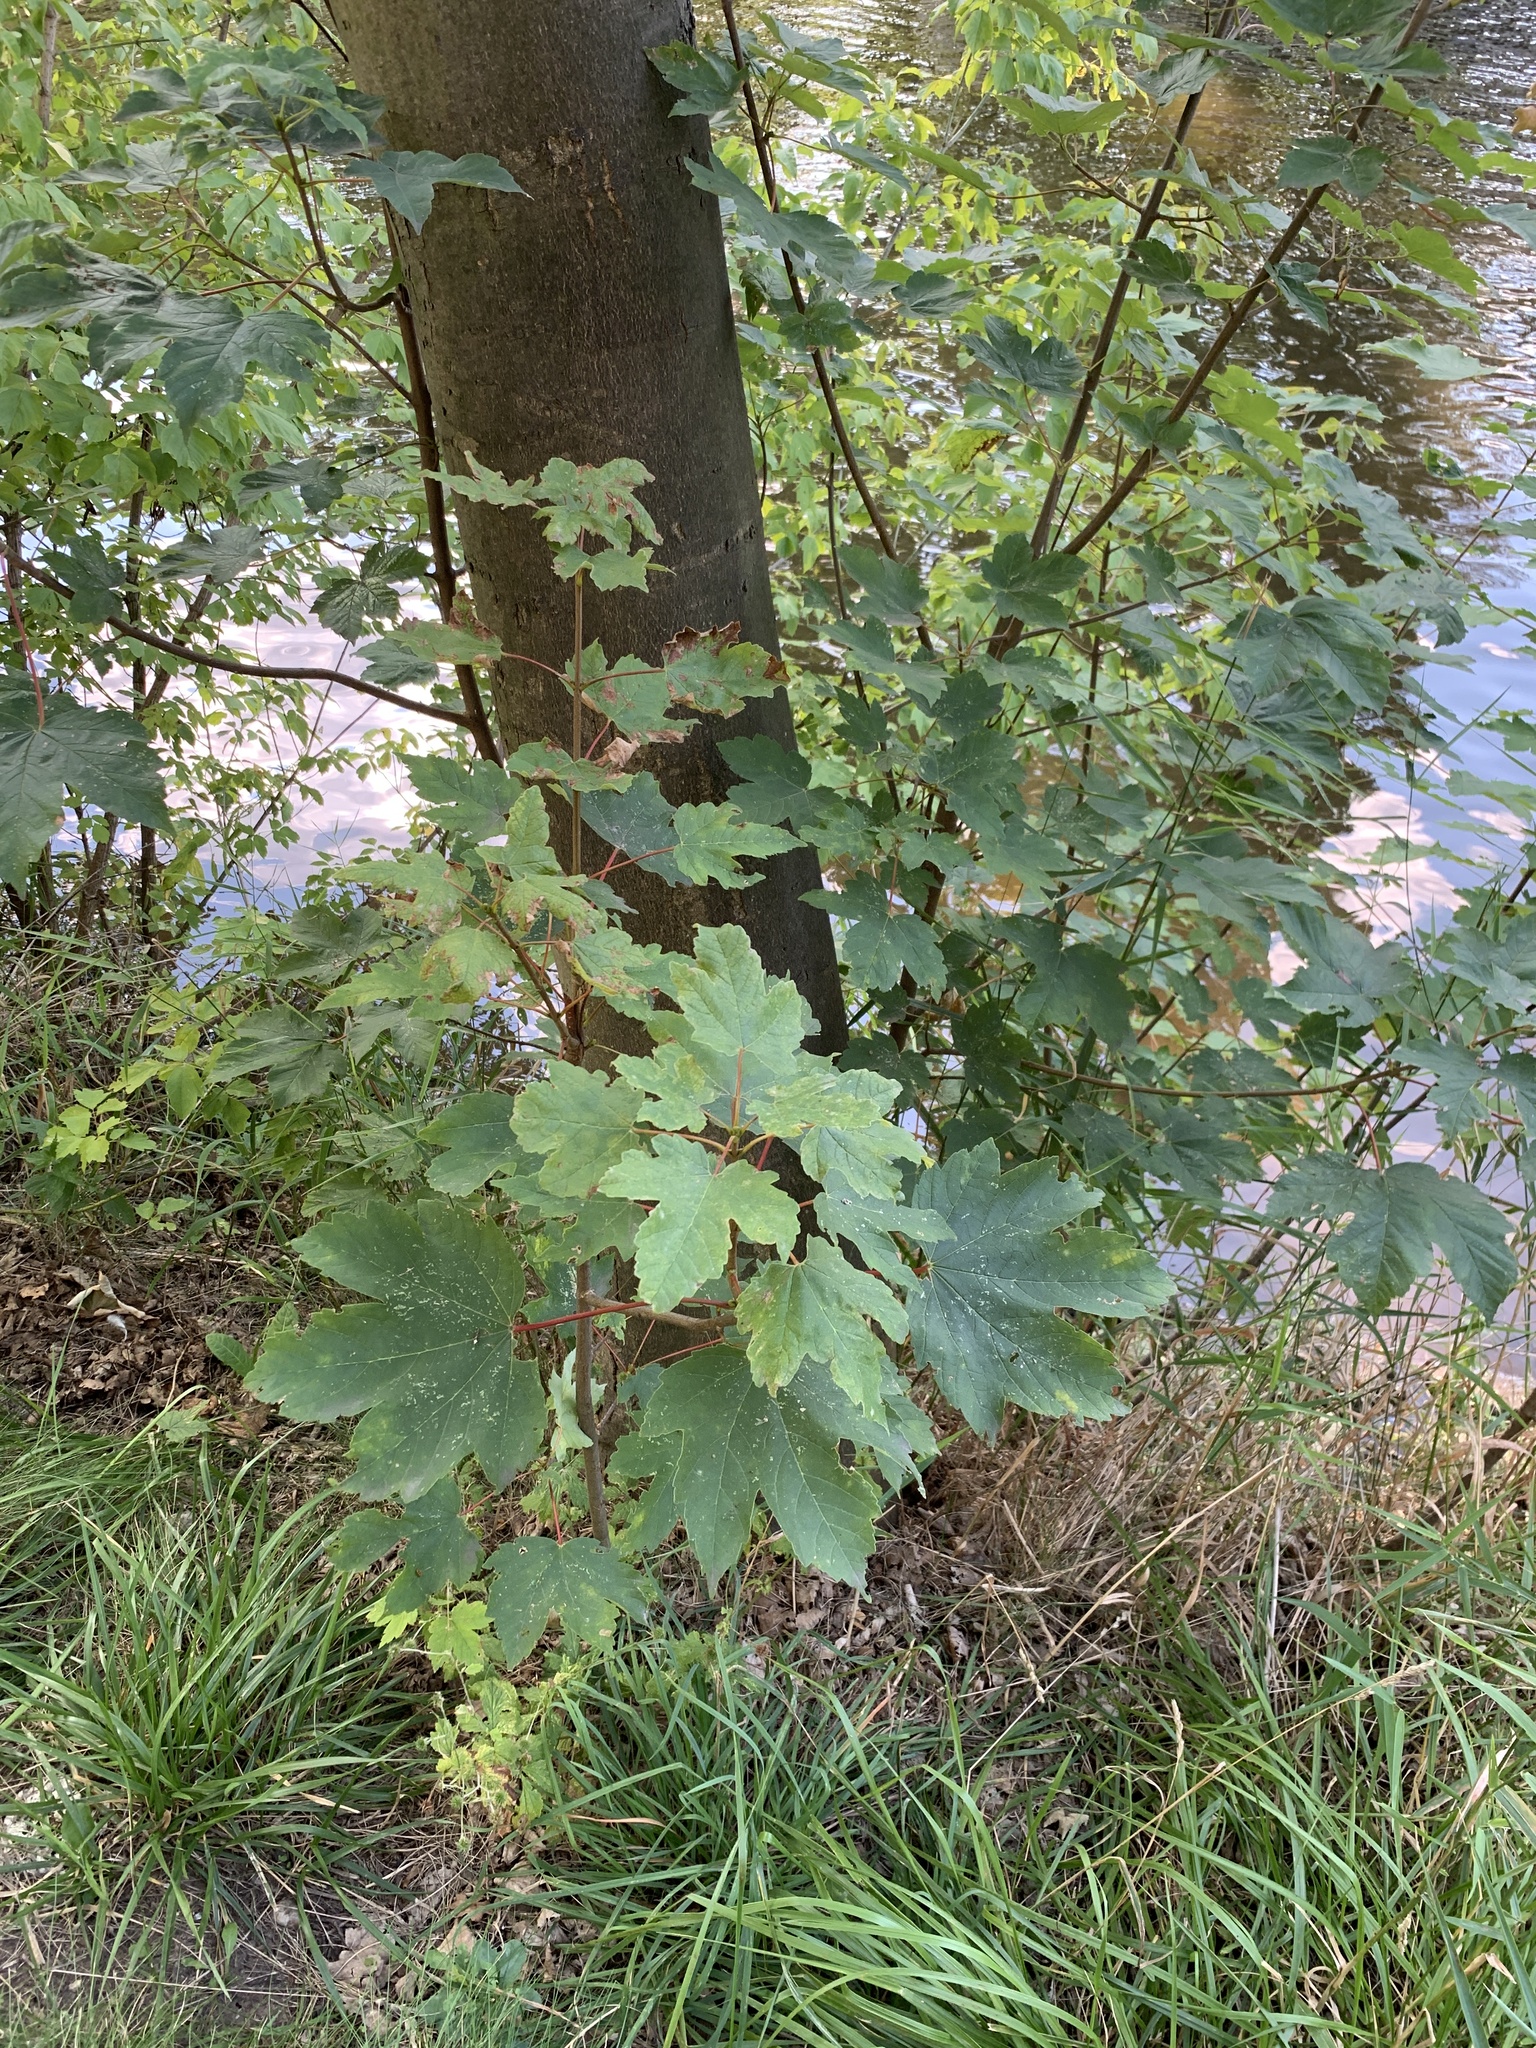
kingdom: Plantae
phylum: Tracheophyta
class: Magnoliopsida
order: Sapindales
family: Sapindaceae
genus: Acer
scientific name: Acer pseudoplatanus
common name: Sycamore
